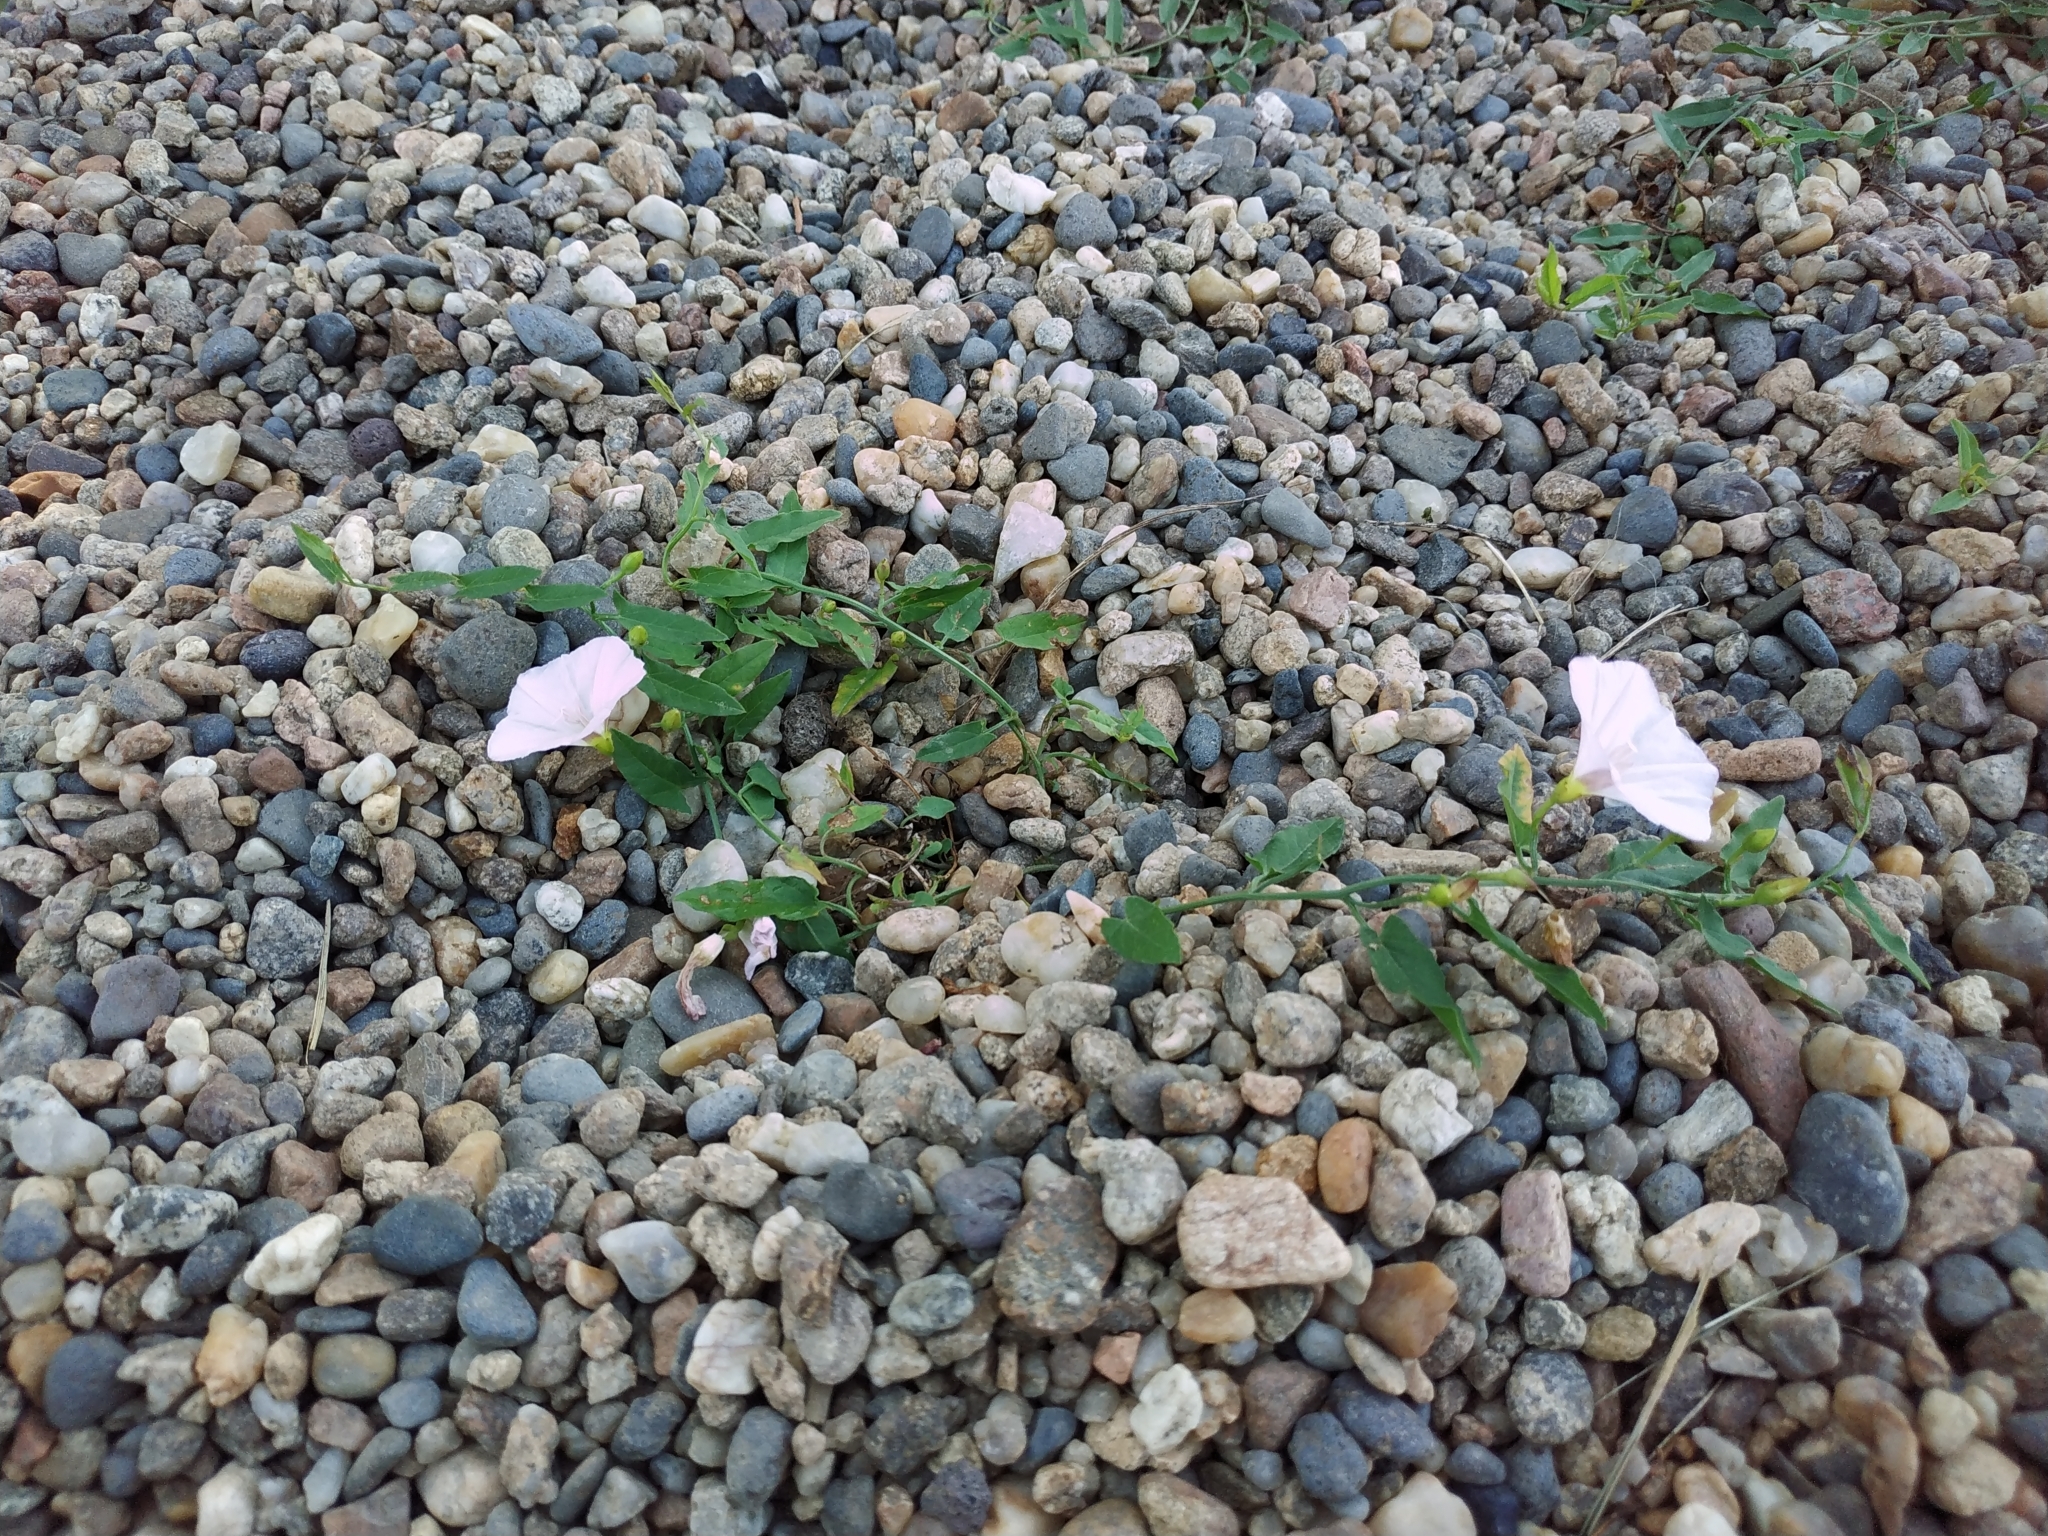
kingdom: Plantae
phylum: Tracheophyta
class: Magnoliopsida
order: Solanales
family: Convolvulaceae
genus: Convolvulus
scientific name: Convolvulus arvensis
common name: Field bindweed
